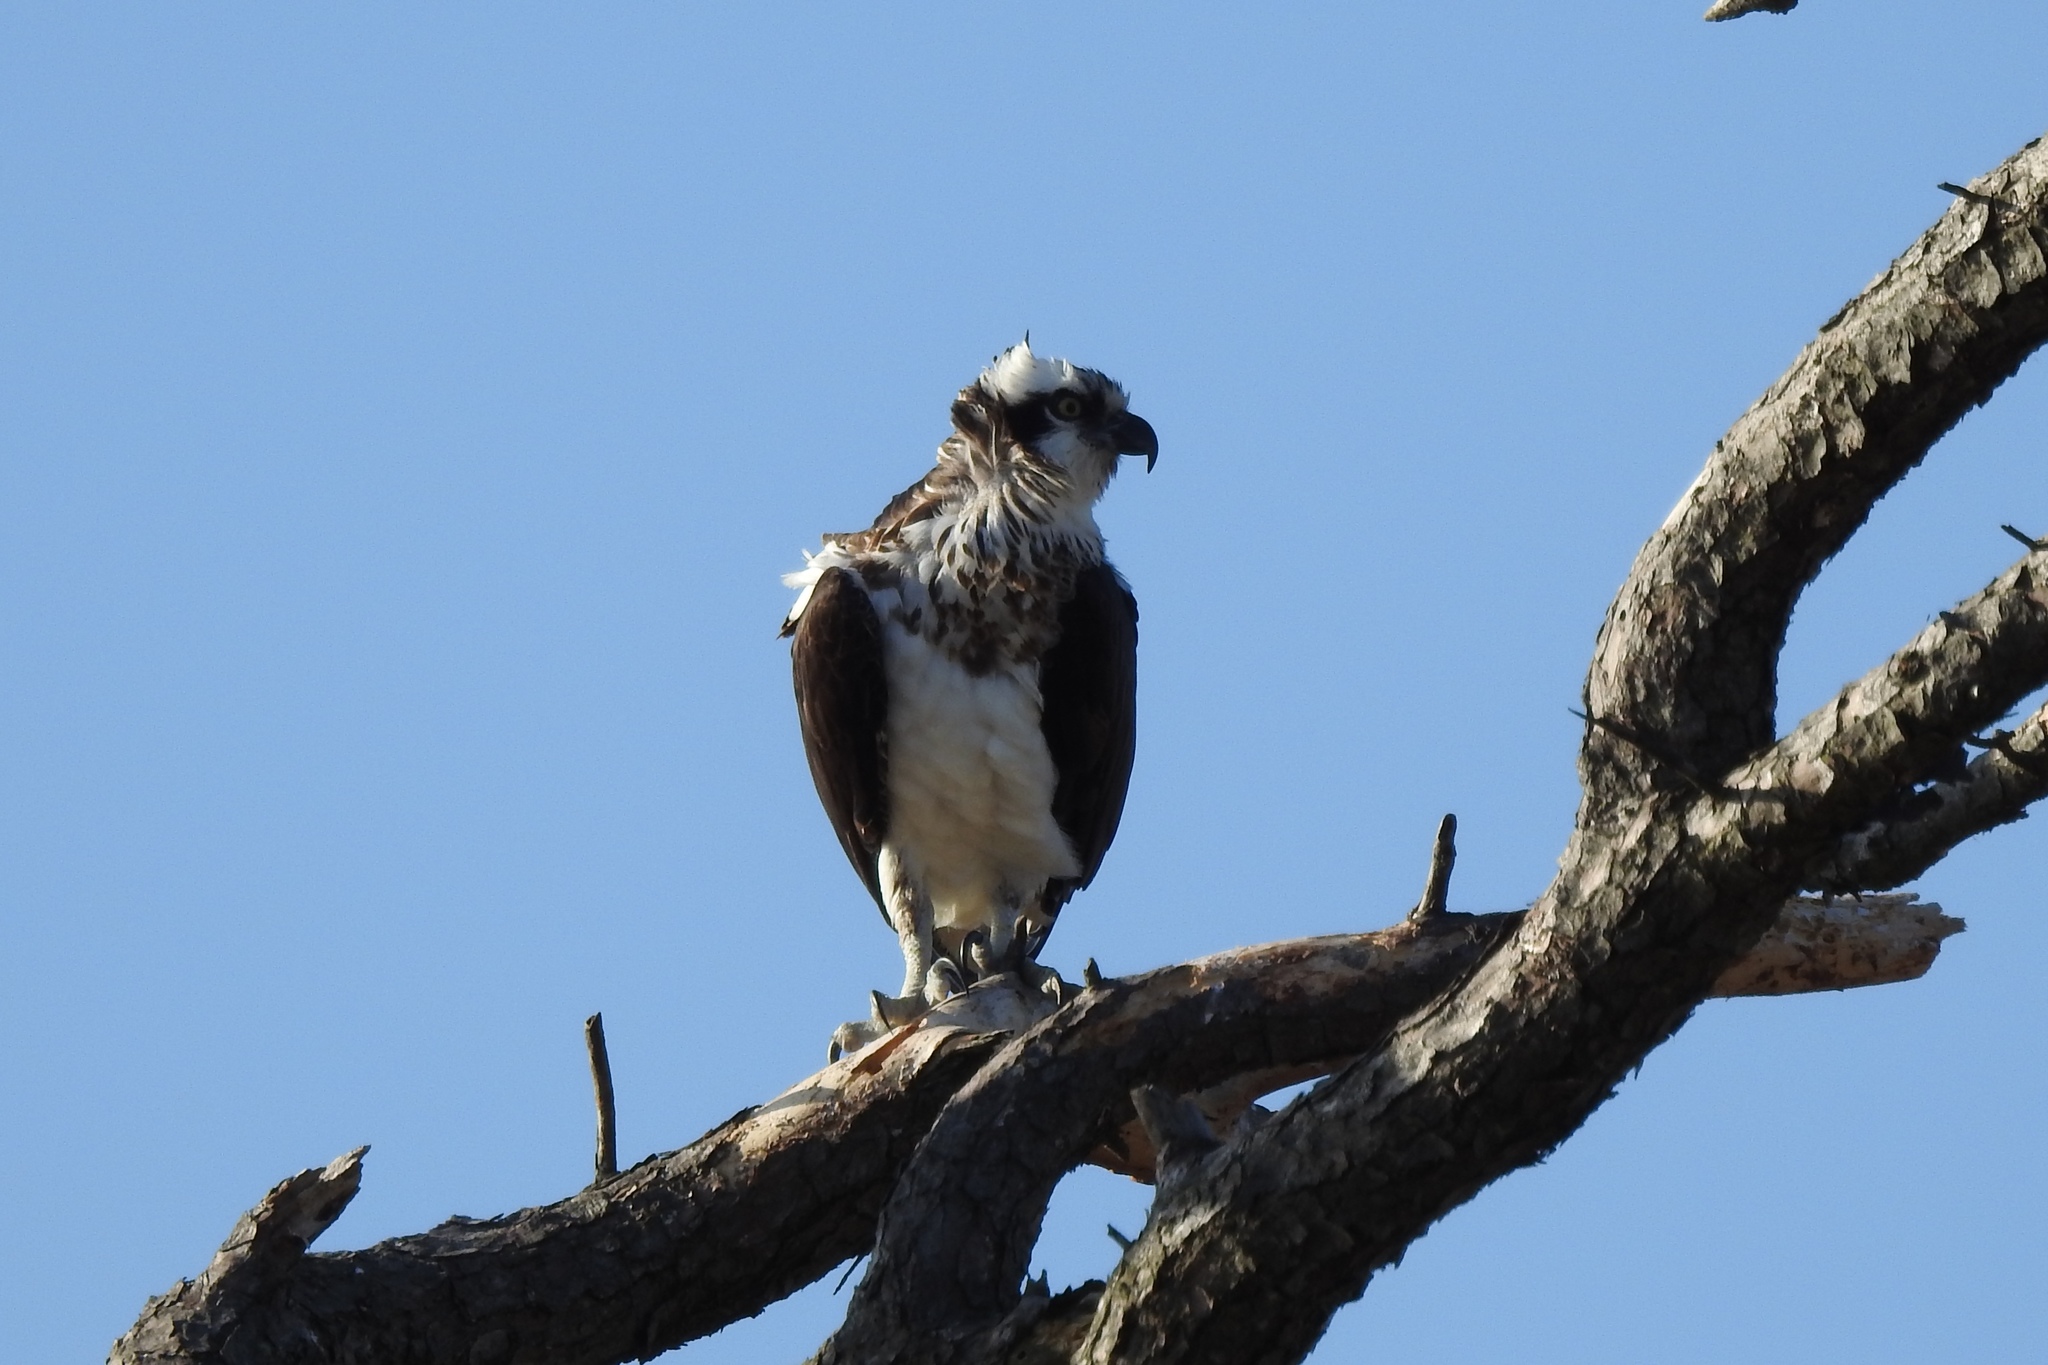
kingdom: Animalia
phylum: Chordata
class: Aves
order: Accipitriformes
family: Pandionidae
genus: Pandion
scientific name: Pandion haliaetus
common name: Osprey
